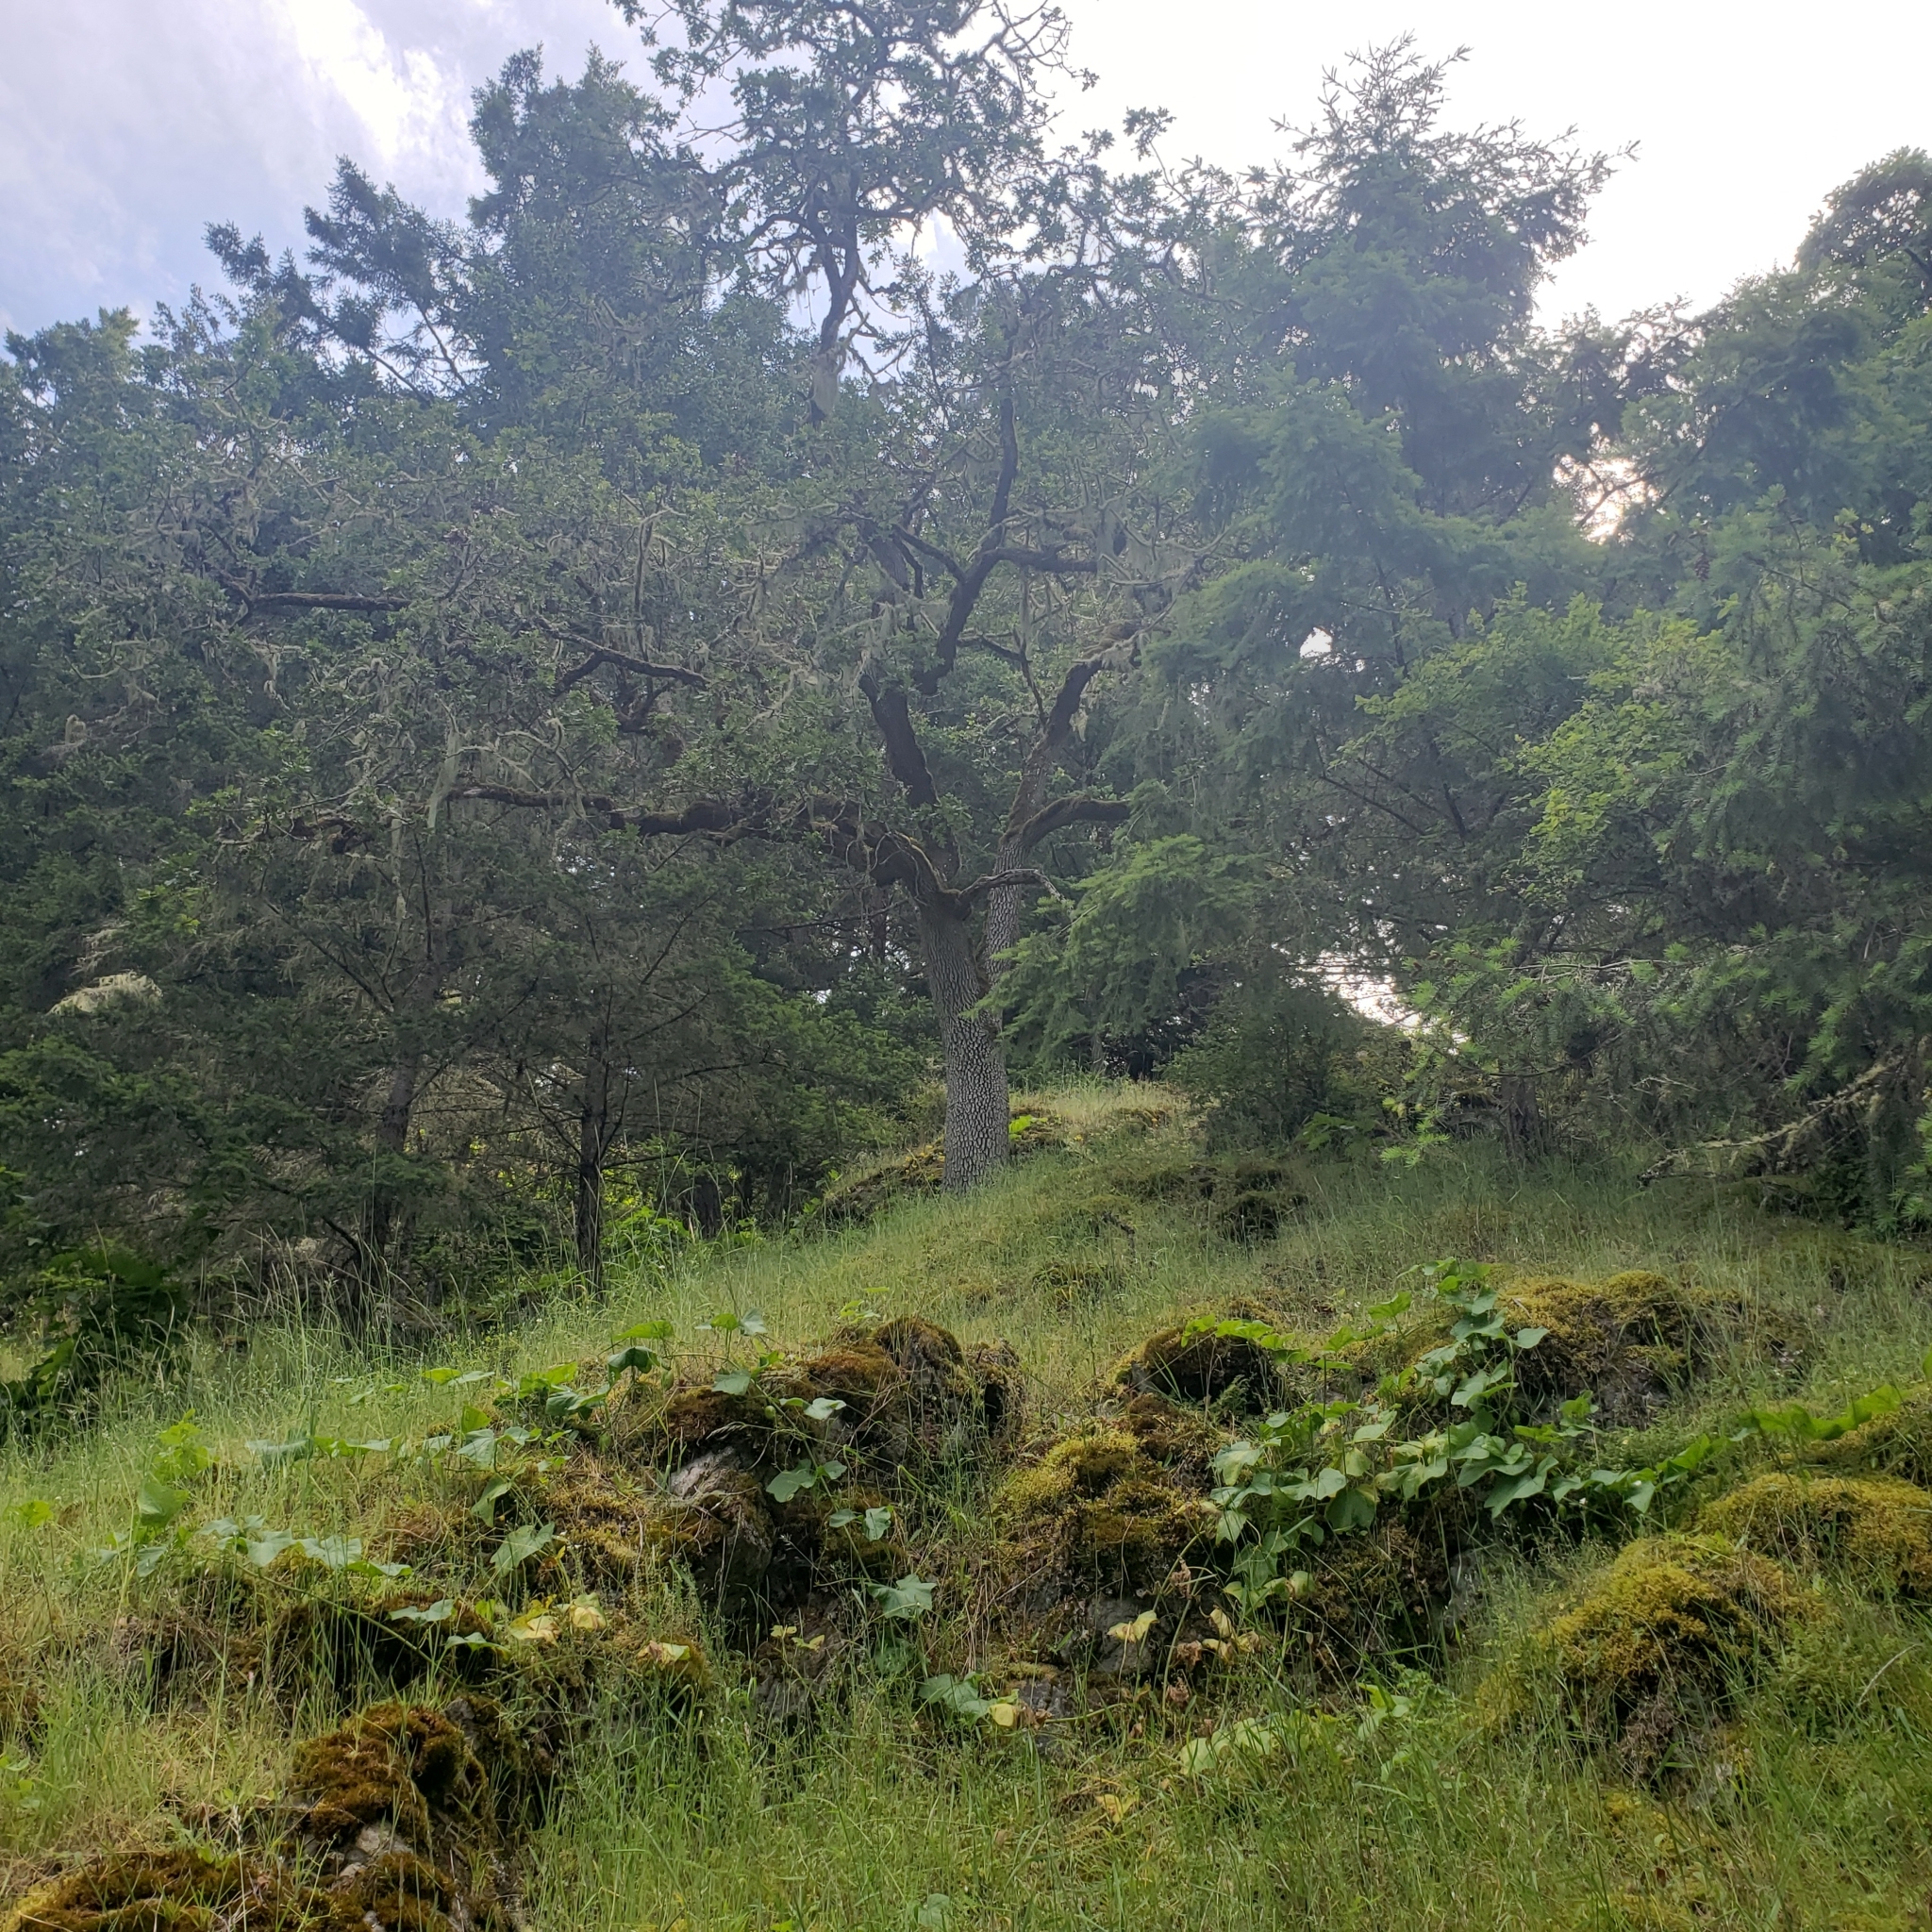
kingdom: Plantae
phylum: Tracheophyta
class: Magnoliopsida
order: Fagales
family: Fagaceae
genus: Quercus
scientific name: Quercus garryana
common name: Garry oak
